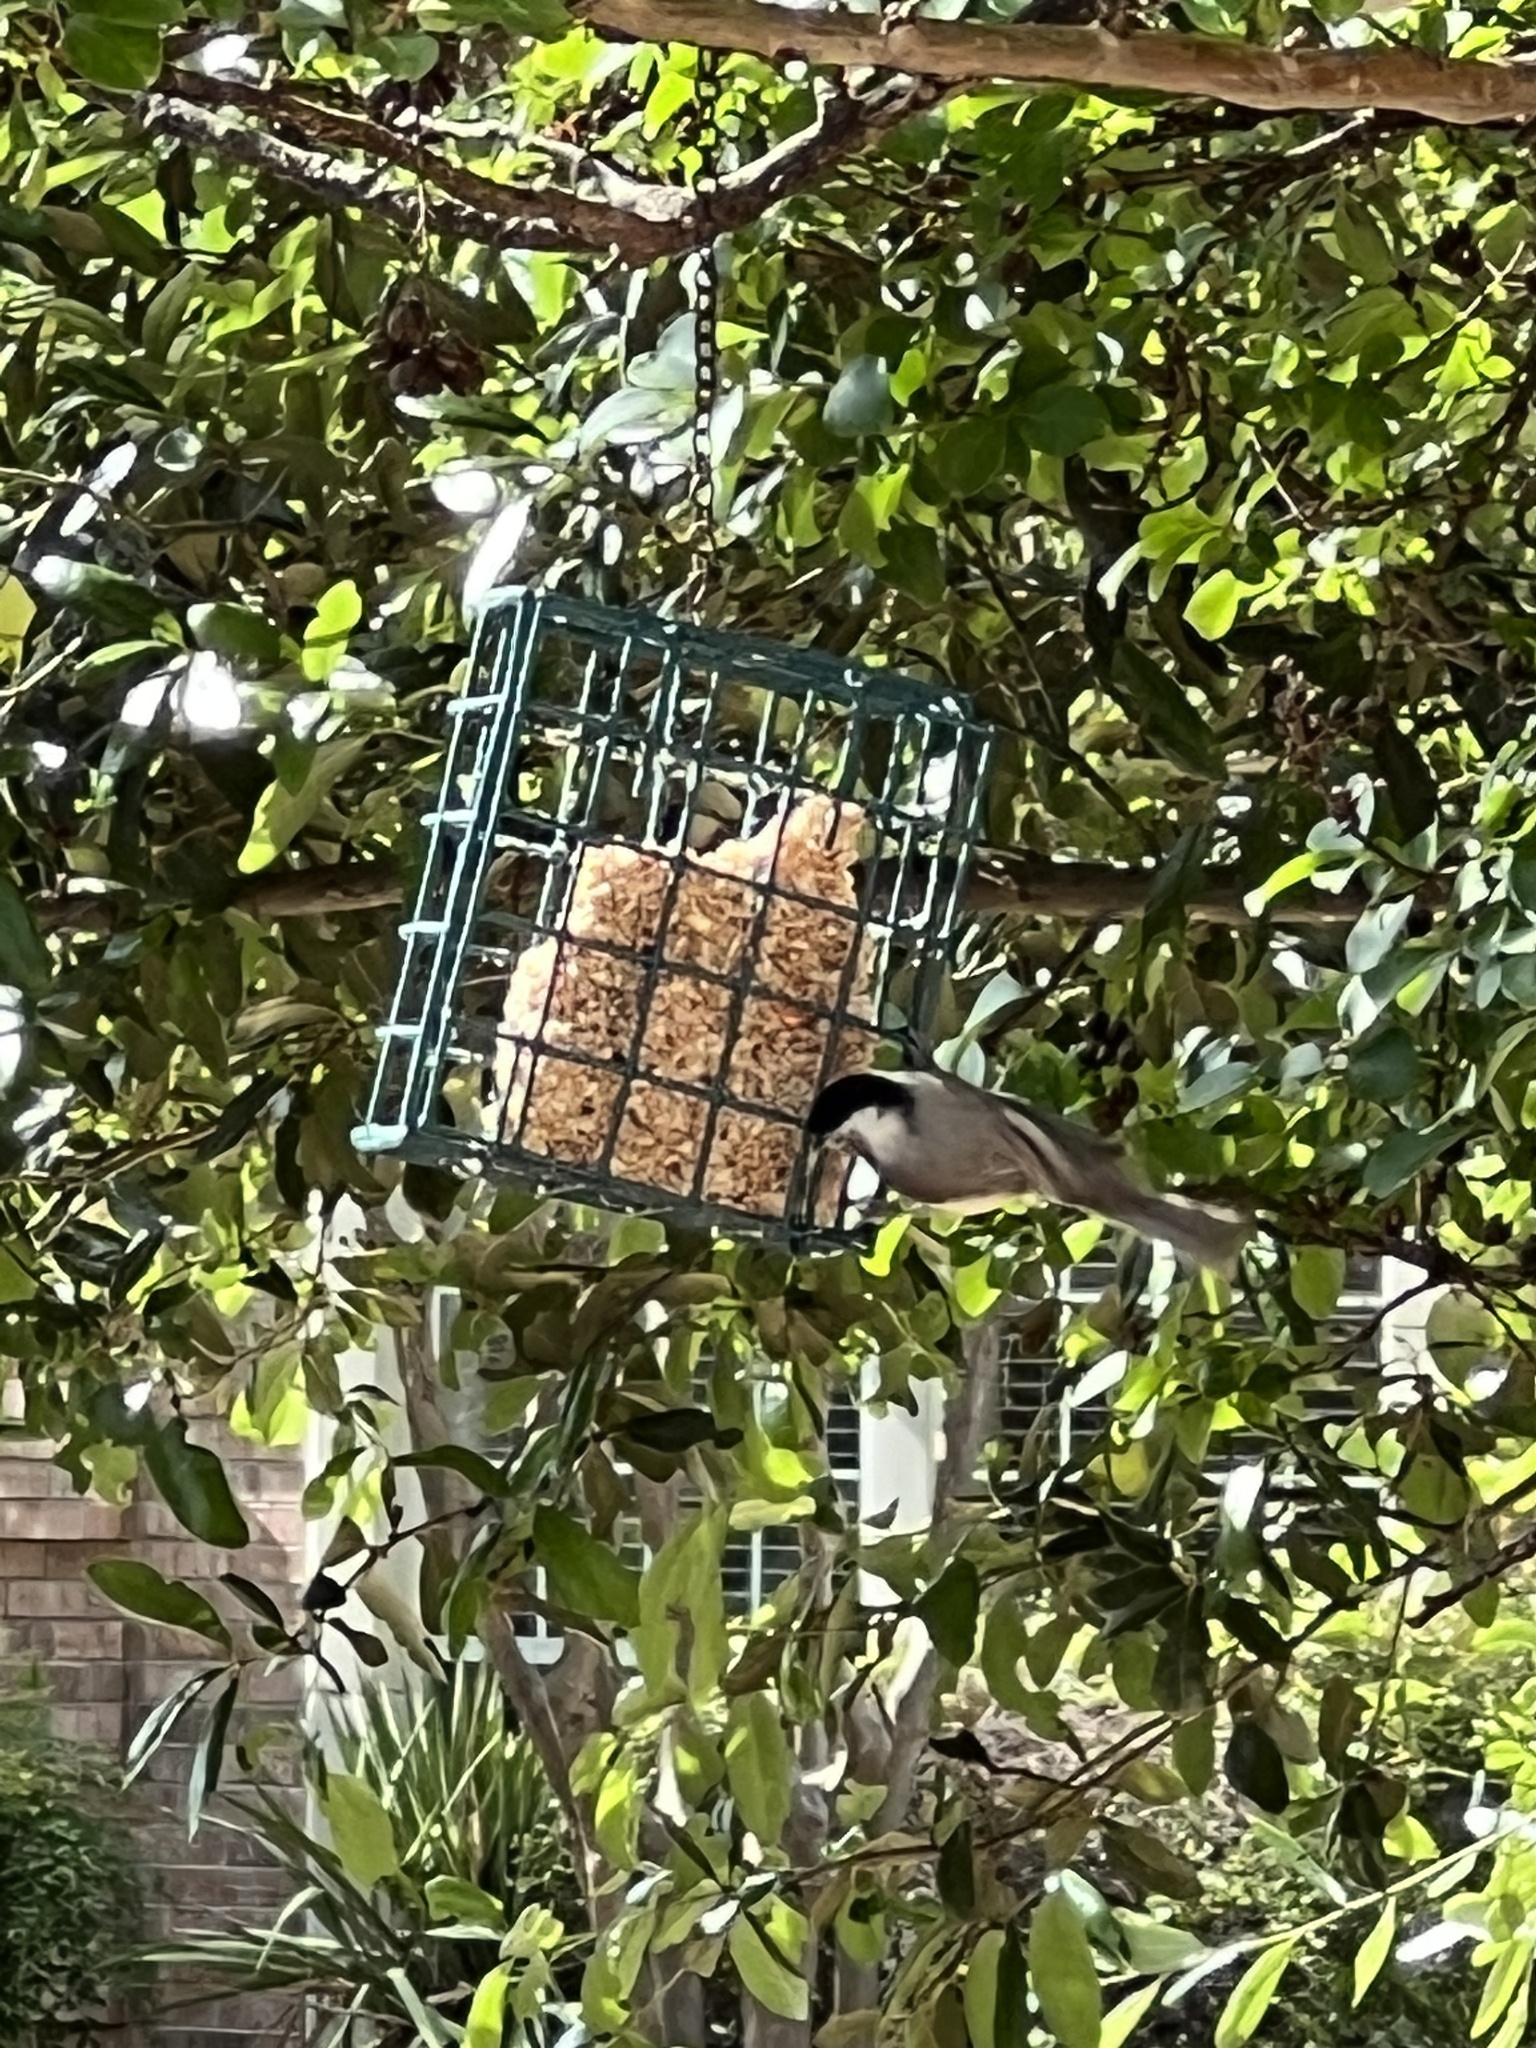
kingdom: Animalia
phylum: Chordata
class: Aves
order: Passeriformes
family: Paridae
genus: Poecile
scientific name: Poecile carolinensis
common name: Carolina chickadee
